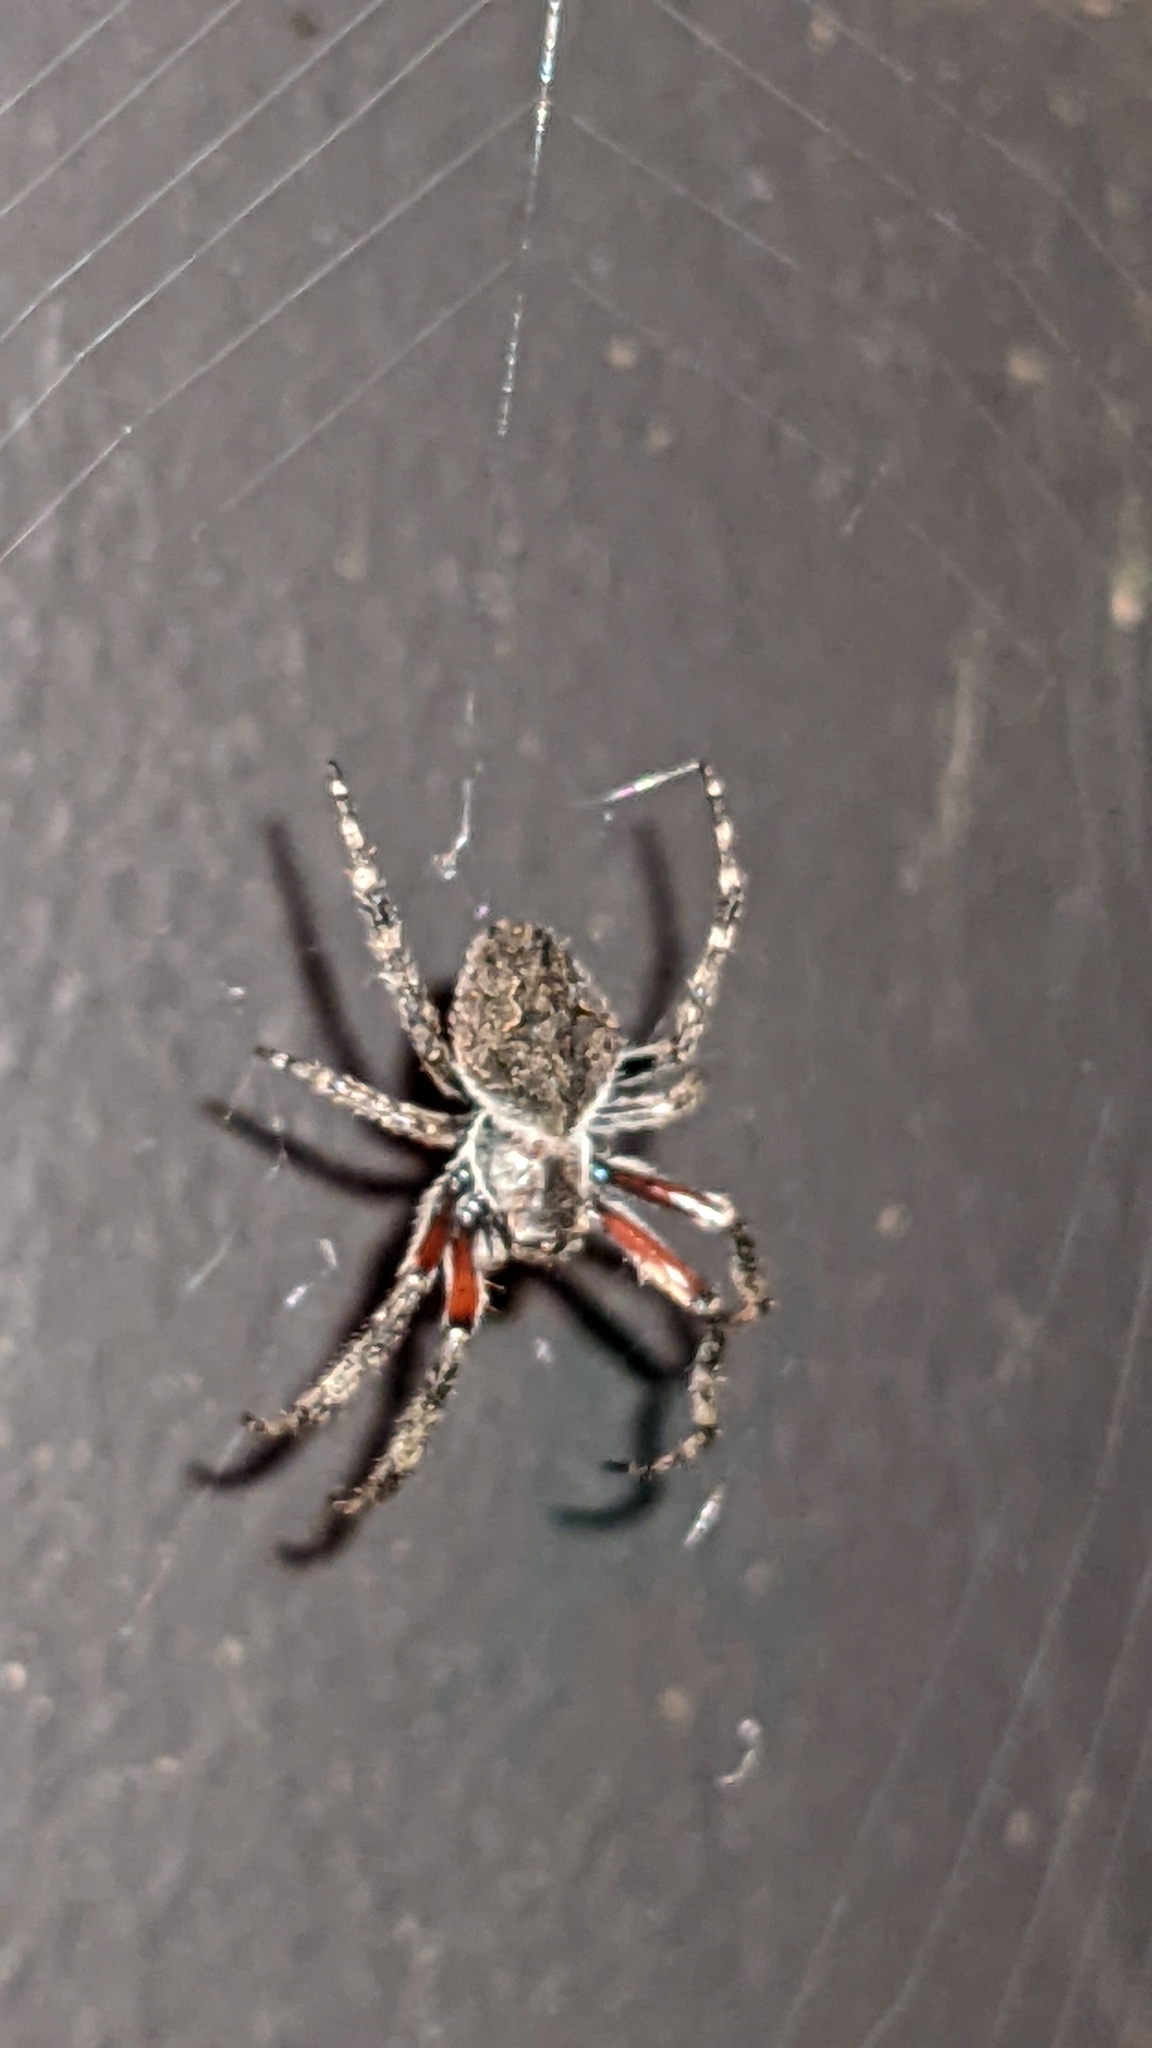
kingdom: Animalia
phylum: Arthropoda
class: Arachnida
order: Araneae
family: Araneidae
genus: Eriophora
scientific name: Eriophora pustulosa
